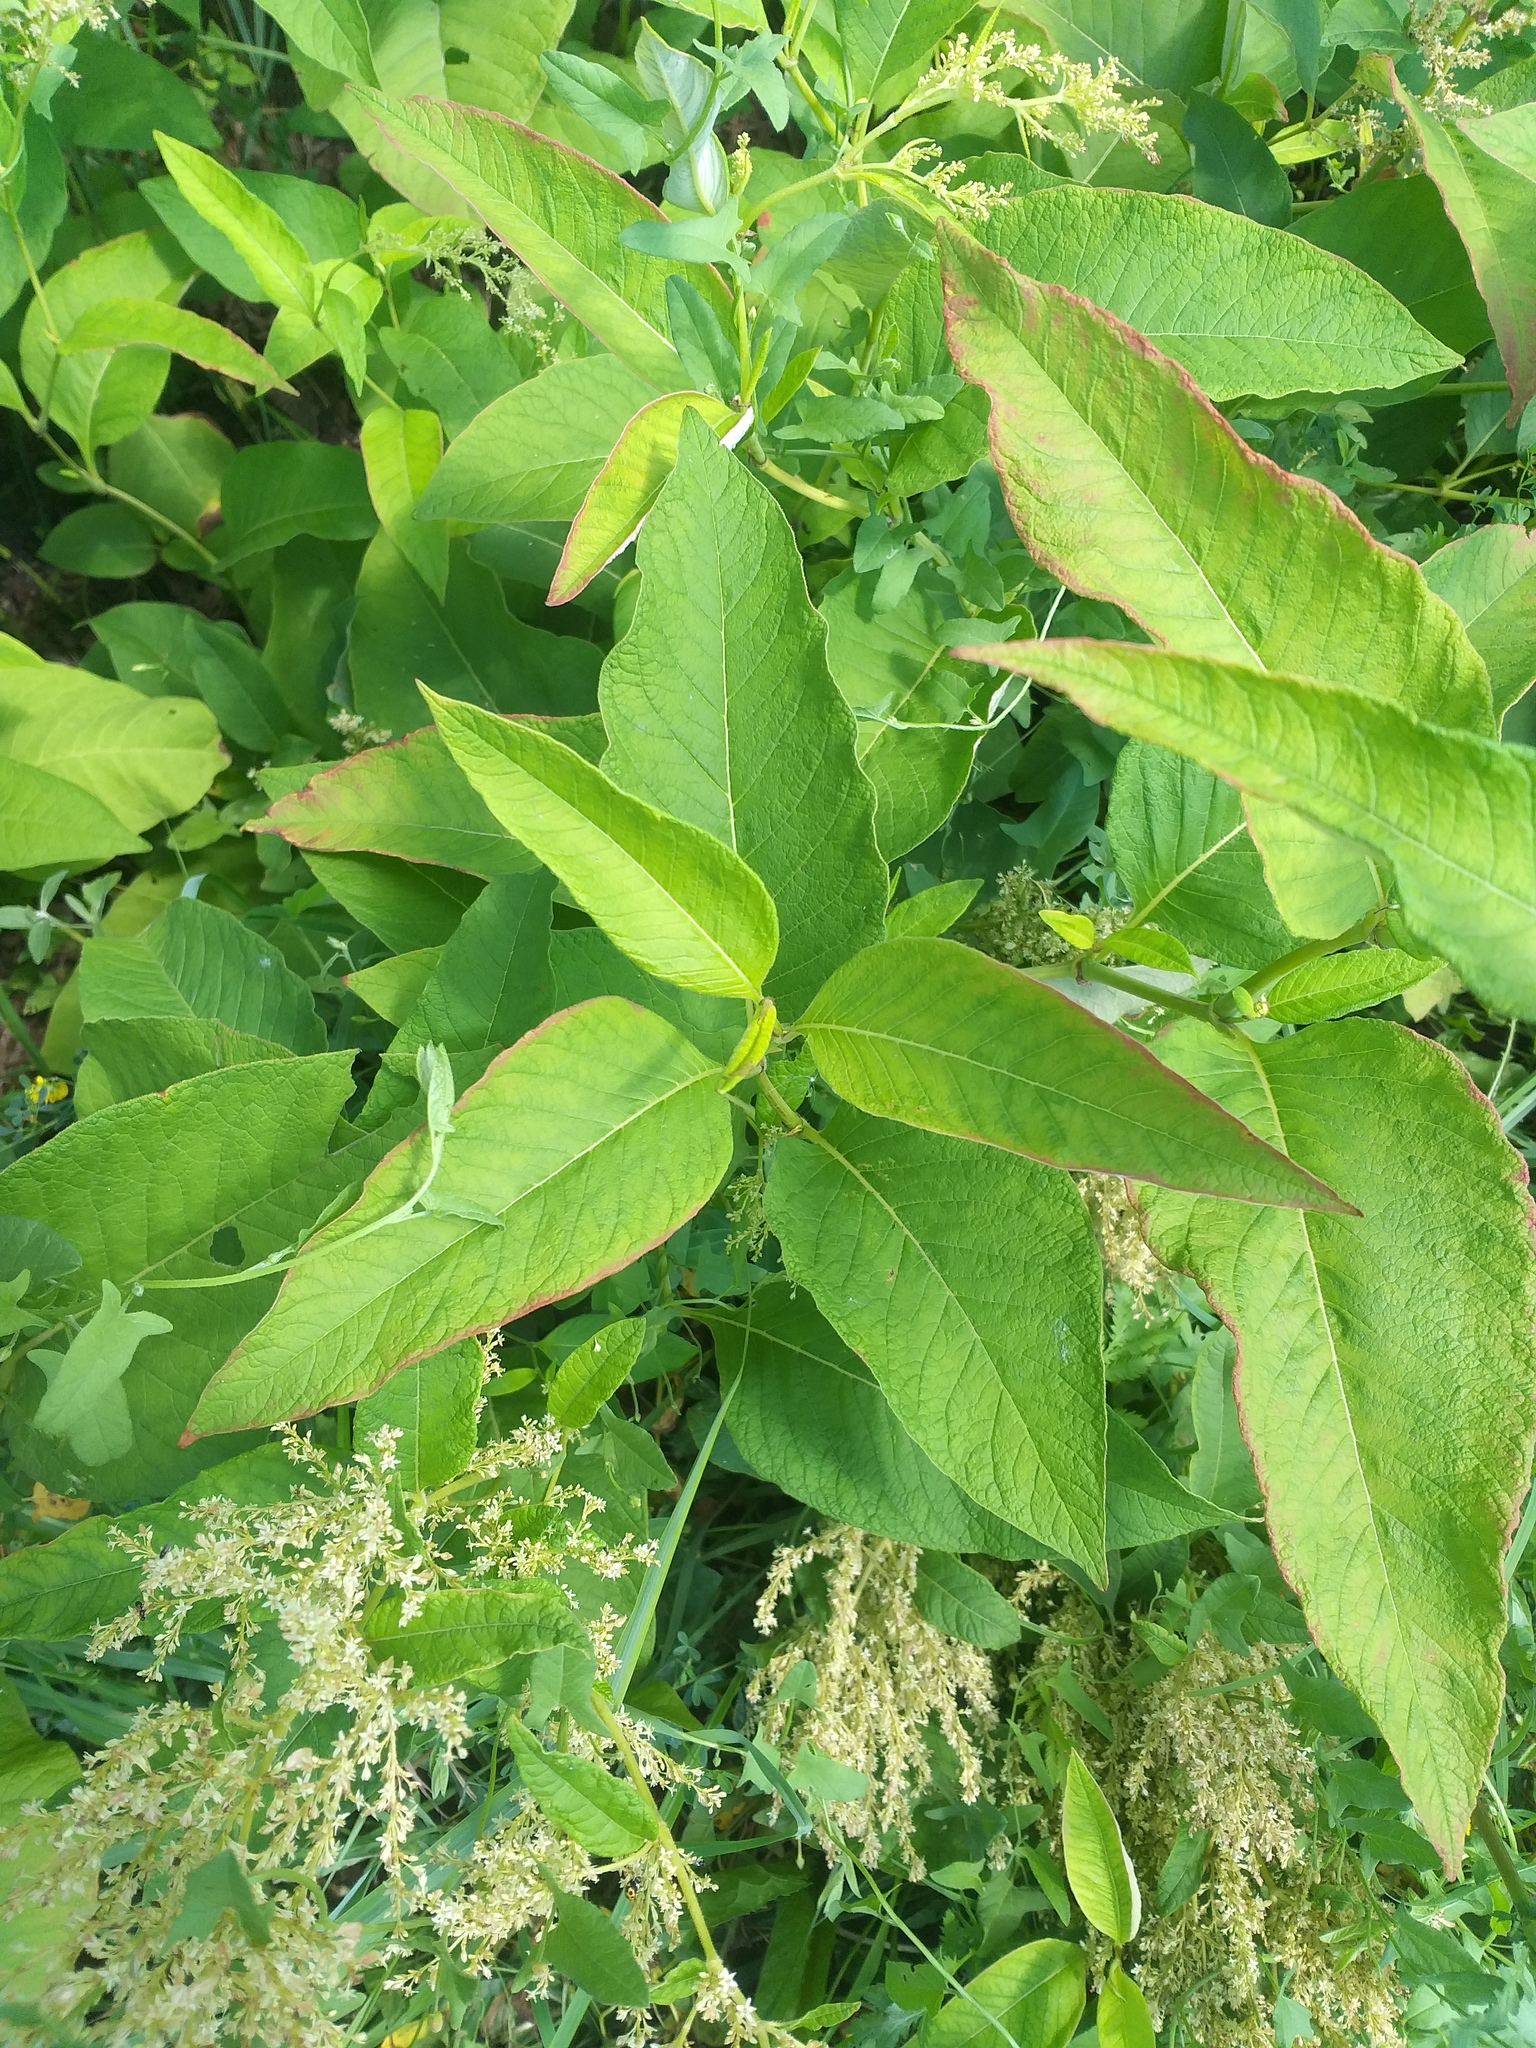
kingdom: Plantae
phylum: Tracheophyta
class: Magnoliopsida
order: Caryophyllales
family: Polygonaceae
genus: Koenigia
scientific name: Koenigia weyrichii
